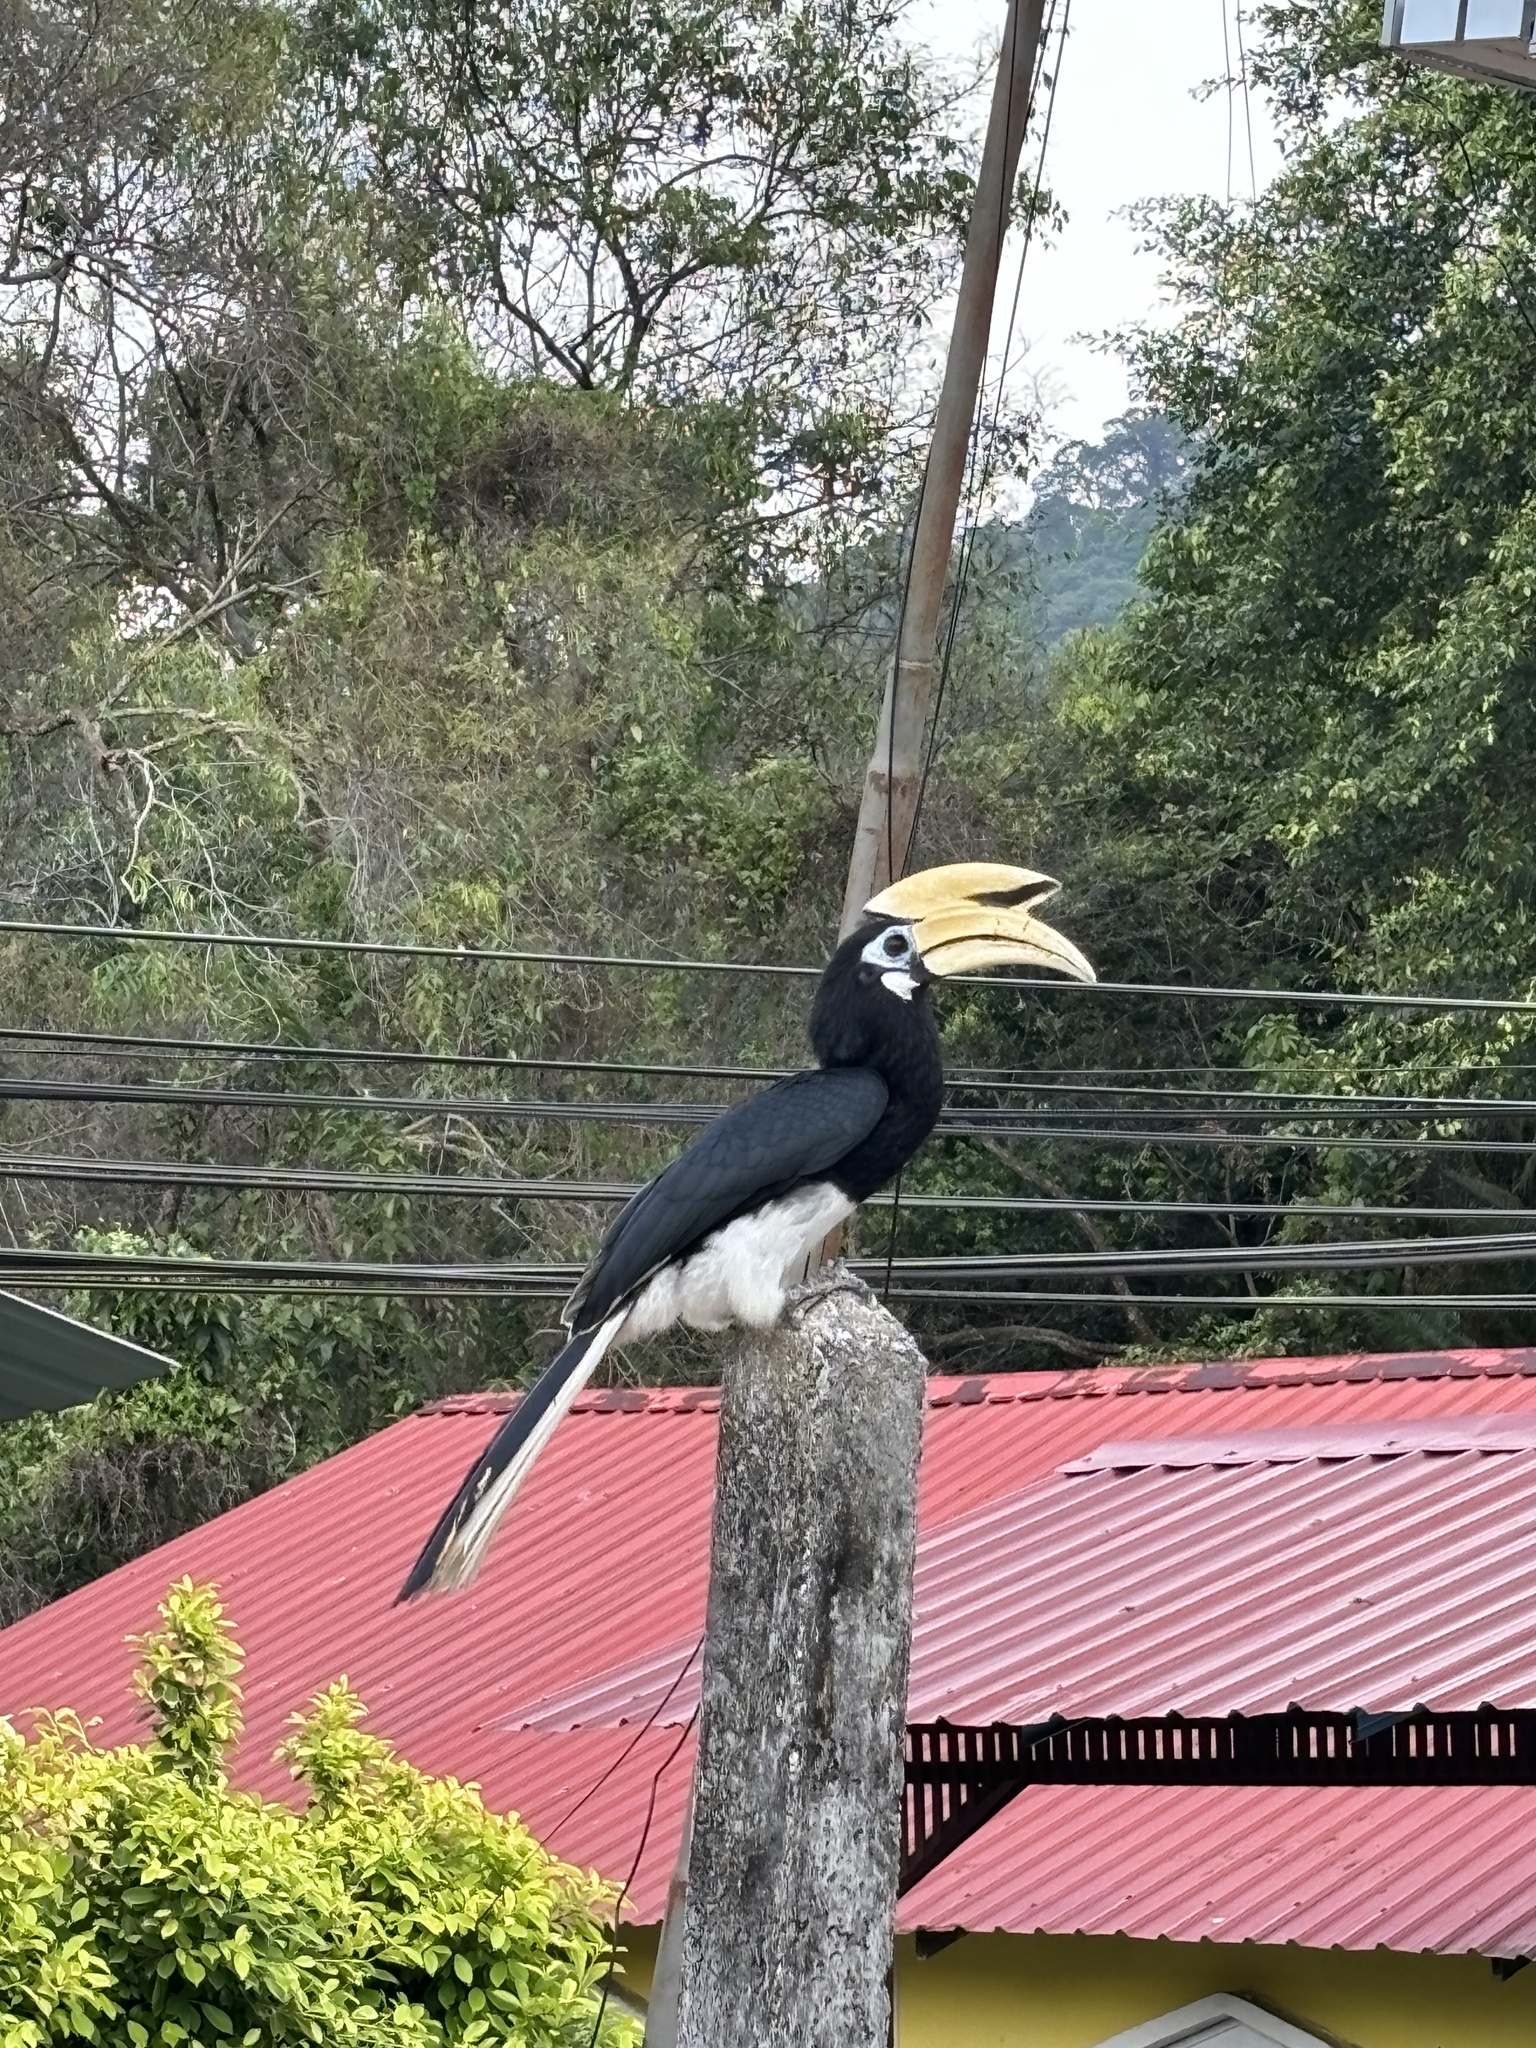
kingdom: Animalia
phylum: Chordata
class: Aves
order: Bucerotiformes
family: Bucerotidae
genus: Anthracoceros
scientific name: Anthracoceros albirostris
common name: Oriental pied-hornbill
